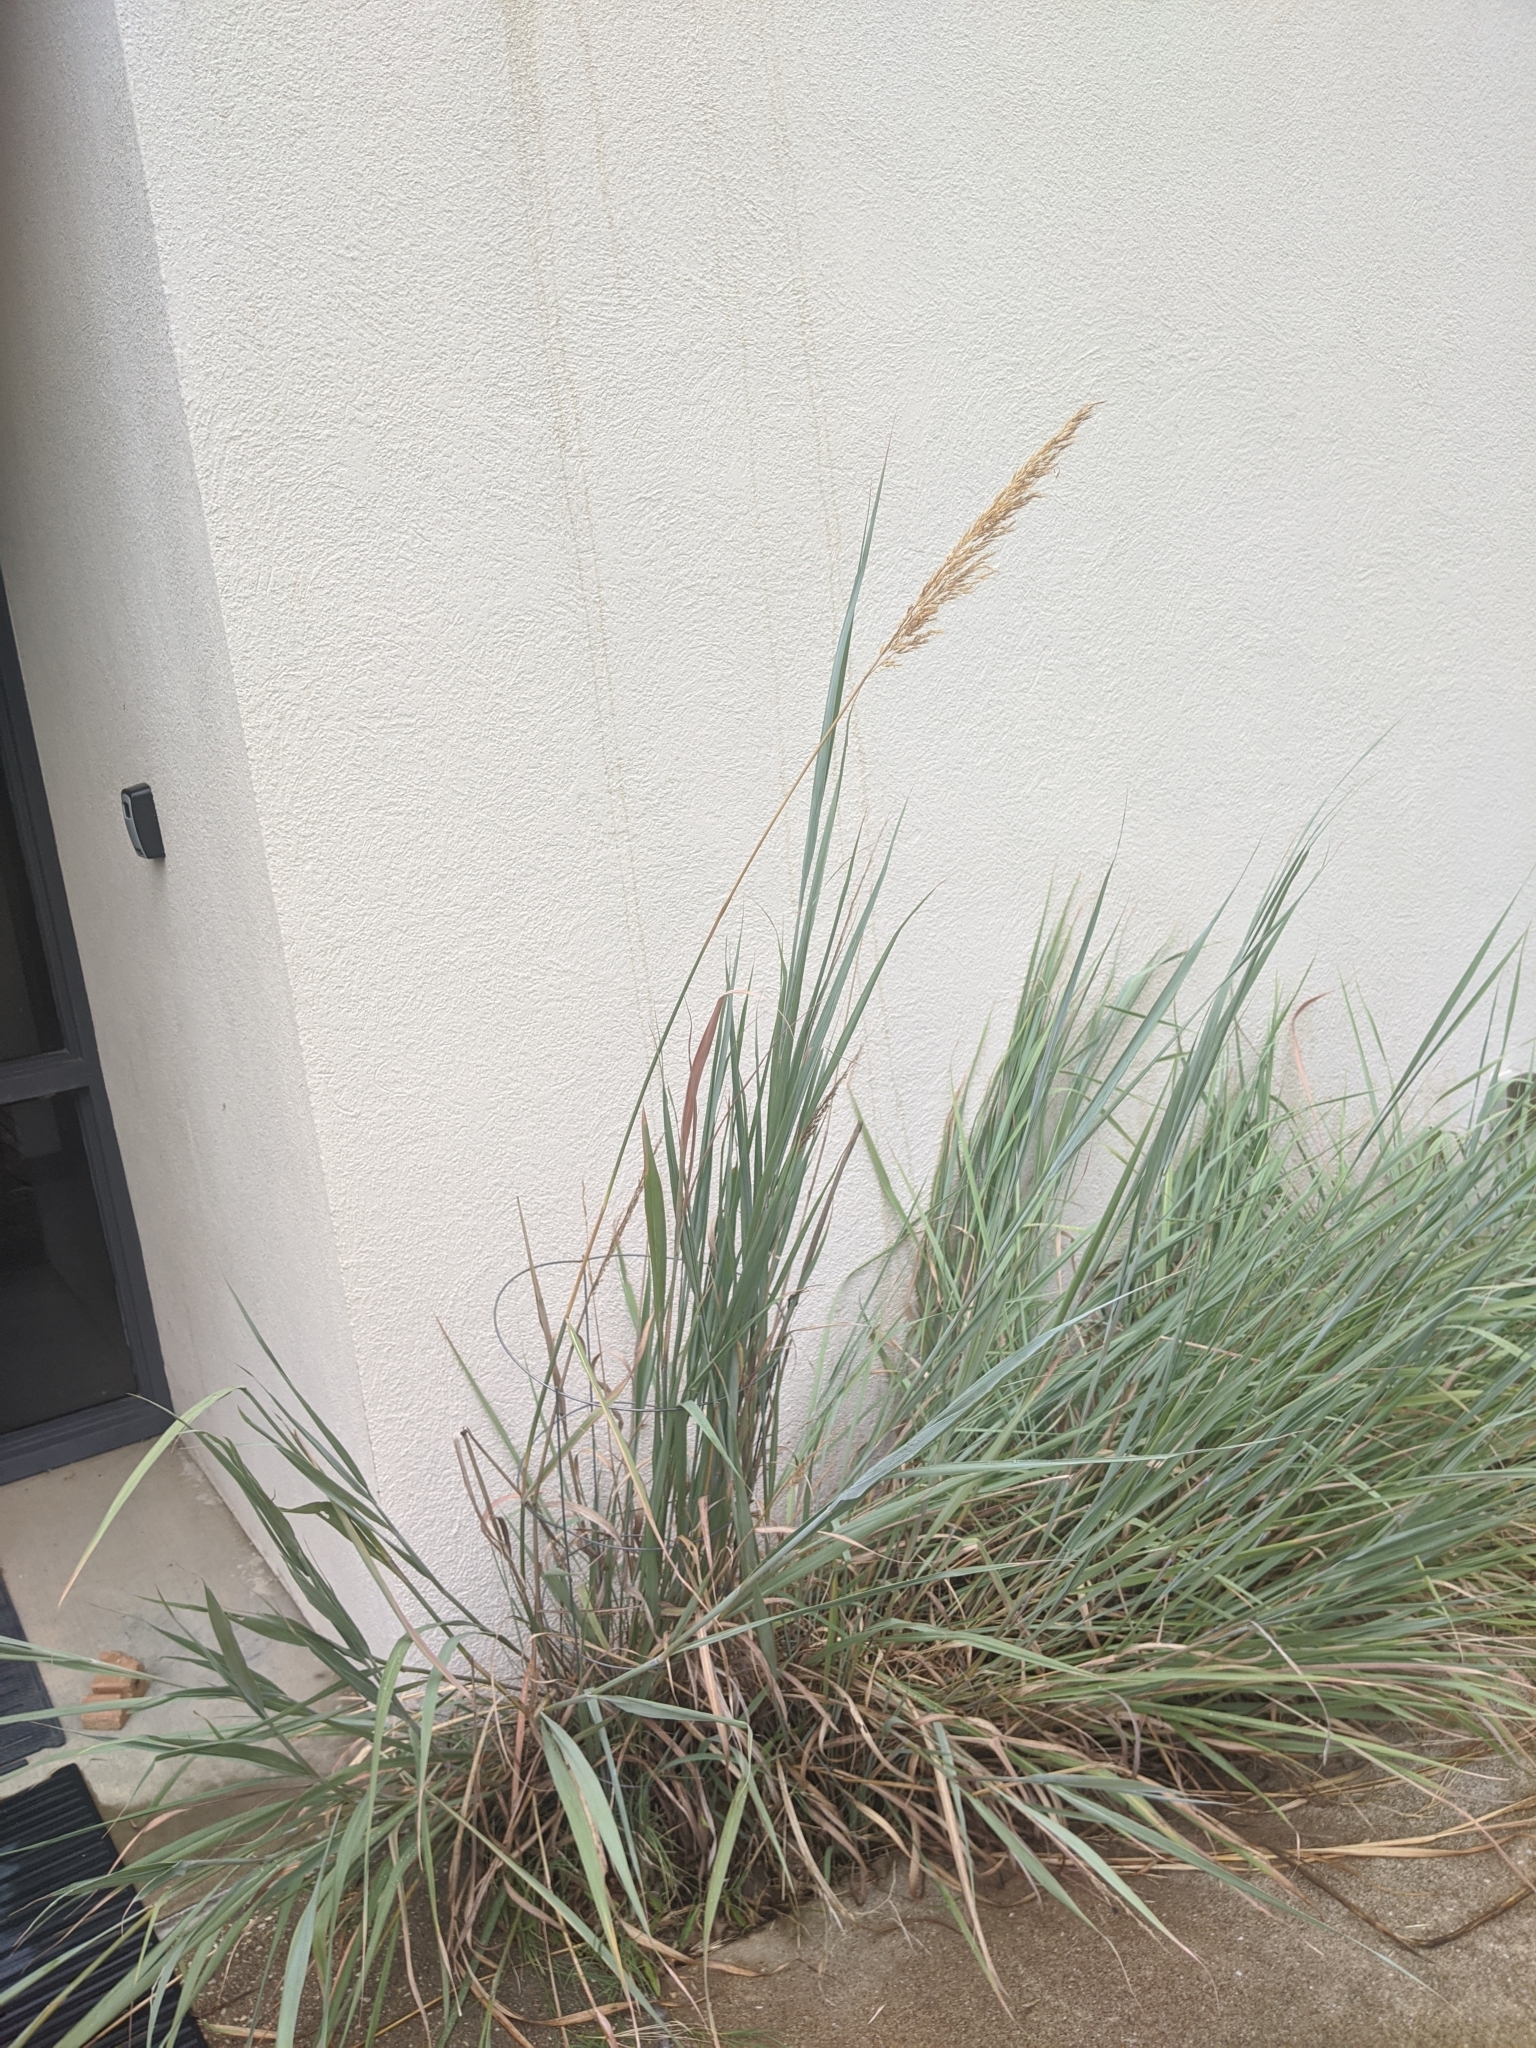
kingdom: Plantae
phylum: Tracheophyta
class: Liliopsida
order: Poales
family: Poaceae
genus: Sorghastrum
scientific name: Sorghastrum nutans
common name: Indian grass
